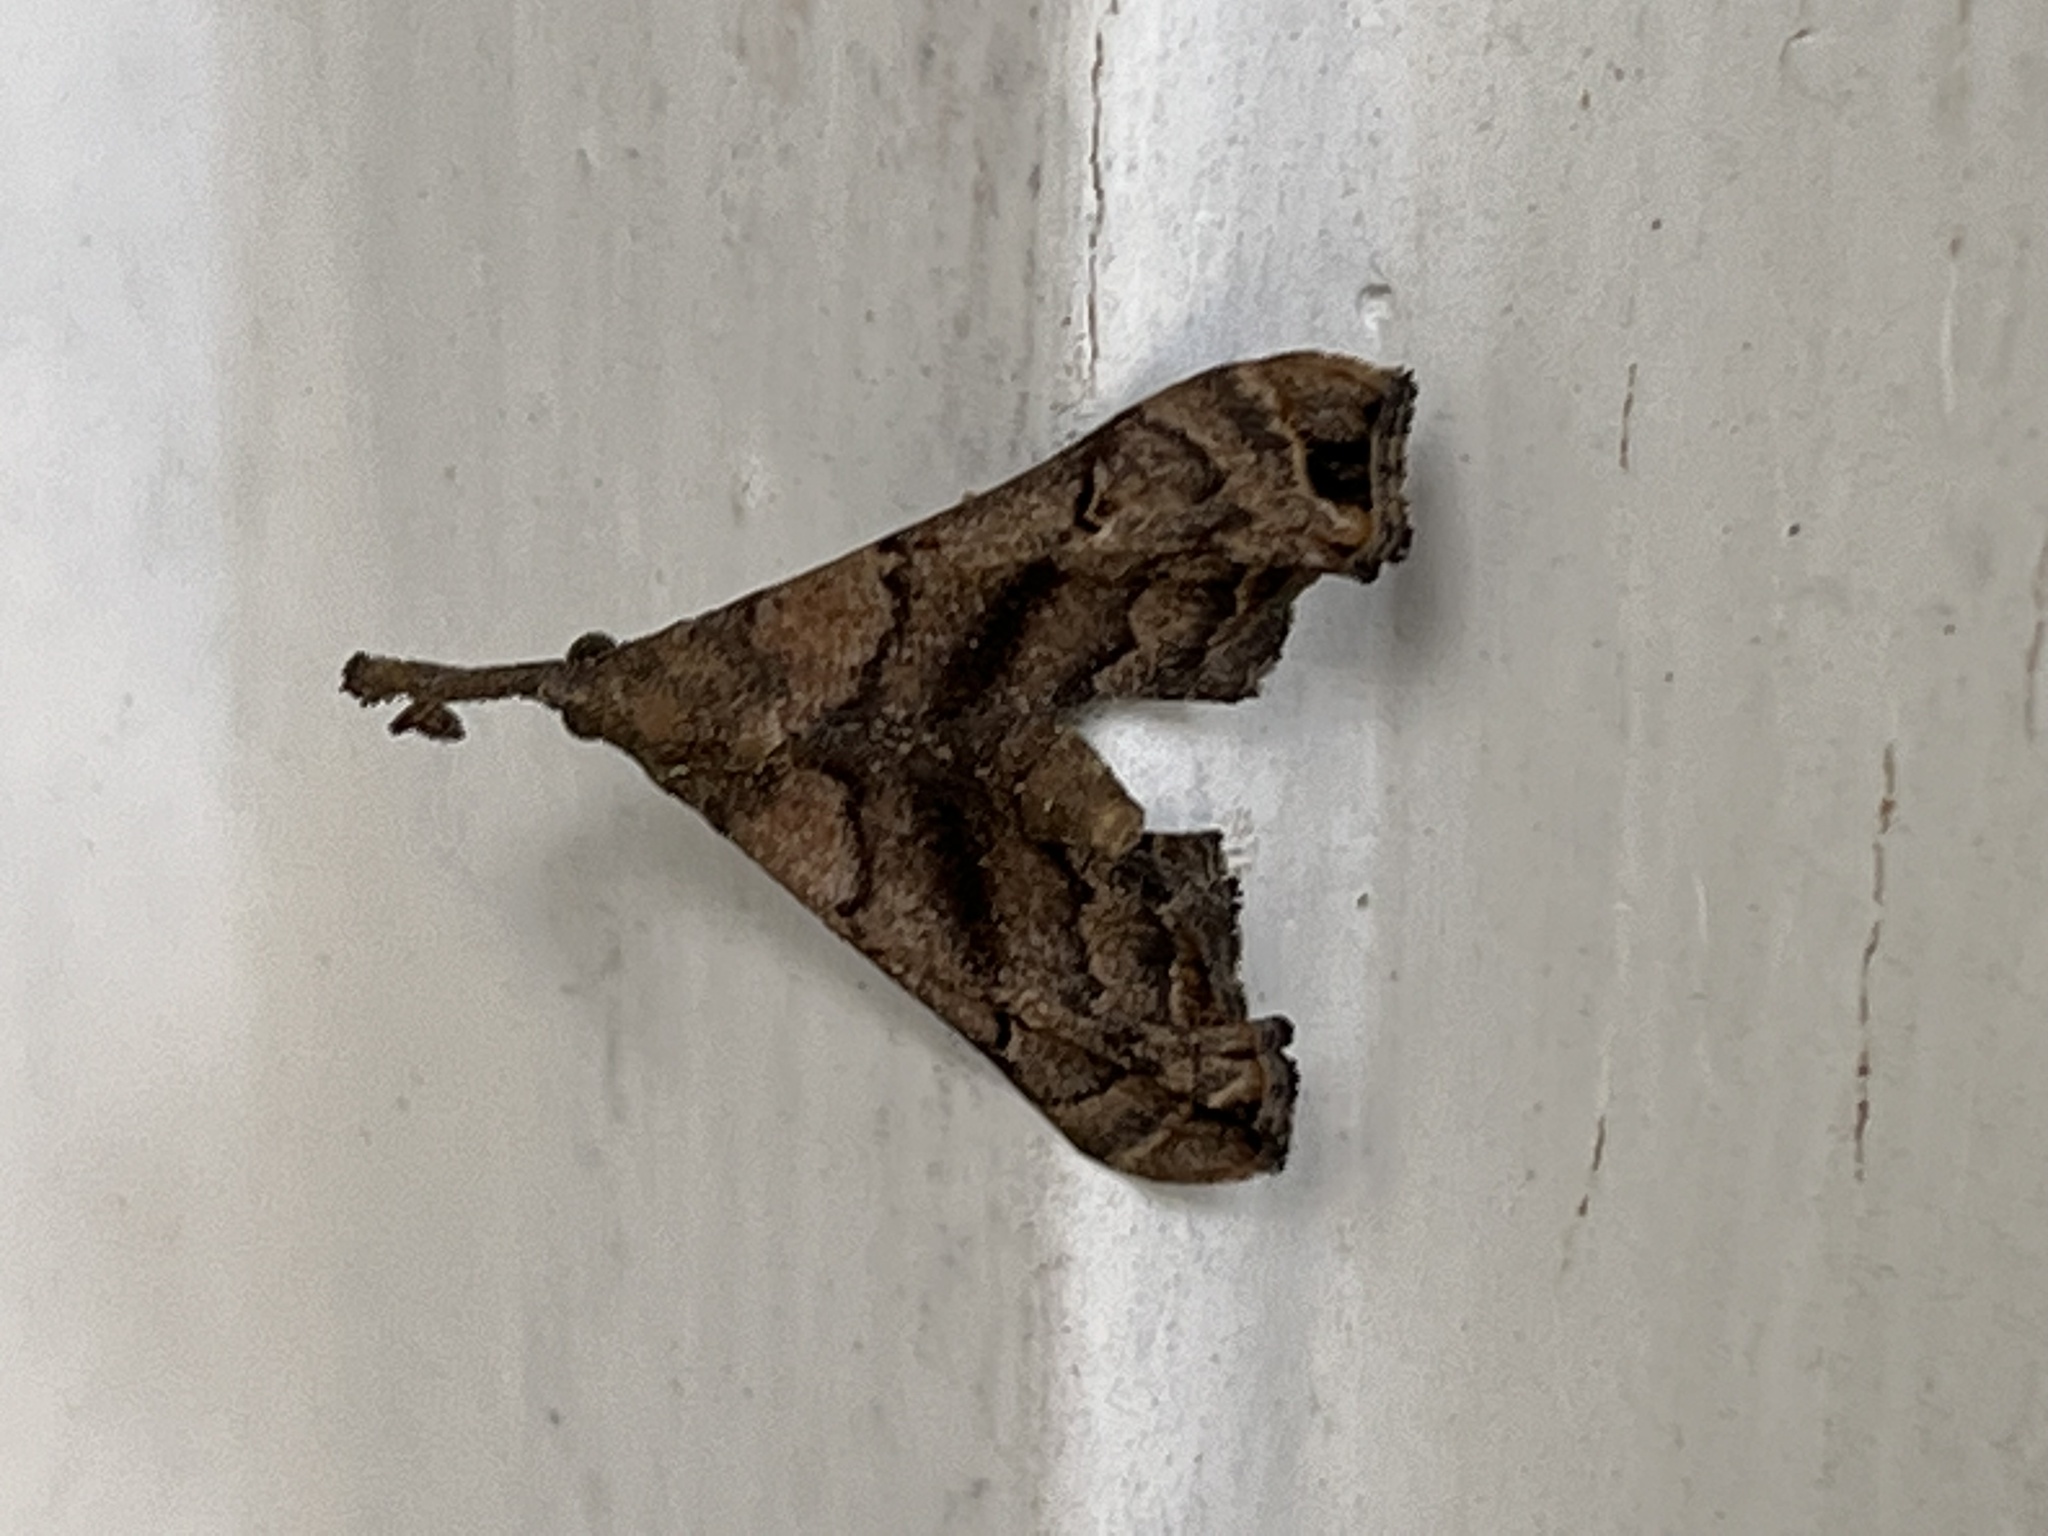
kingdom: Animalia
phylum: Arthropoda
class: Insecta
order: Lepidoptera
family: Erebidae
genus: Palthis
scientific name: Palthis asopialis
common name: Faint-spotted palthis moth
